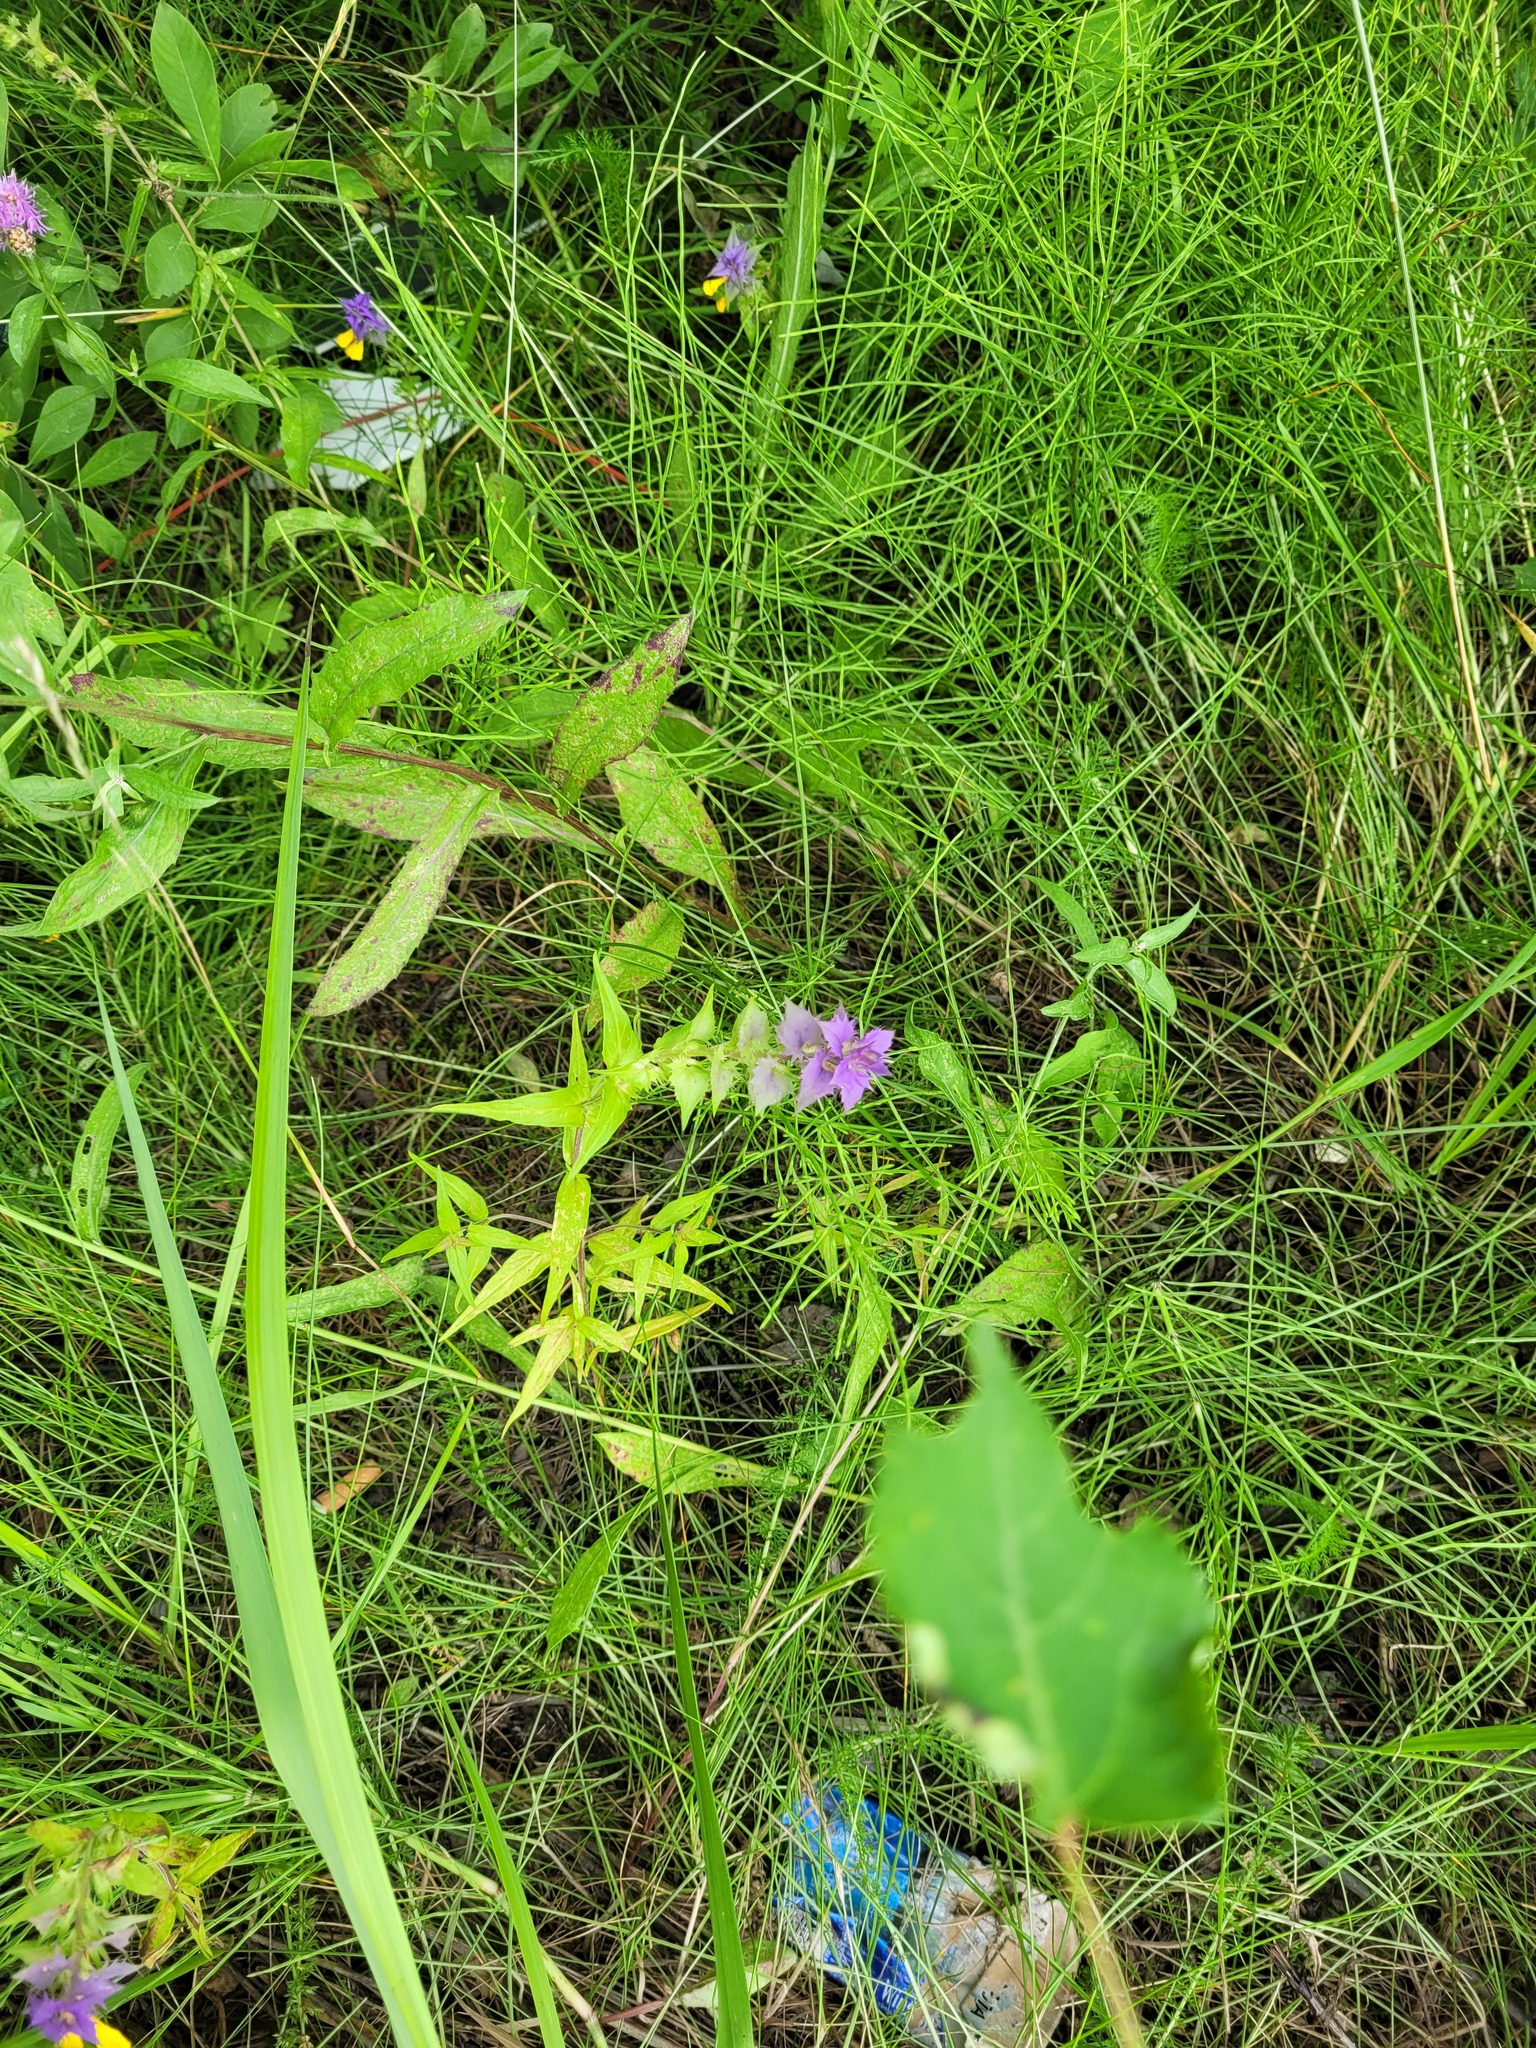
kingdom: Plantae
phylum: Tracheophyta
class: Magnoliopsida
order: Lamiales
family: Orobanchaceae
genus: Melampyrum
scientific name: Melampyrum nemorosum
